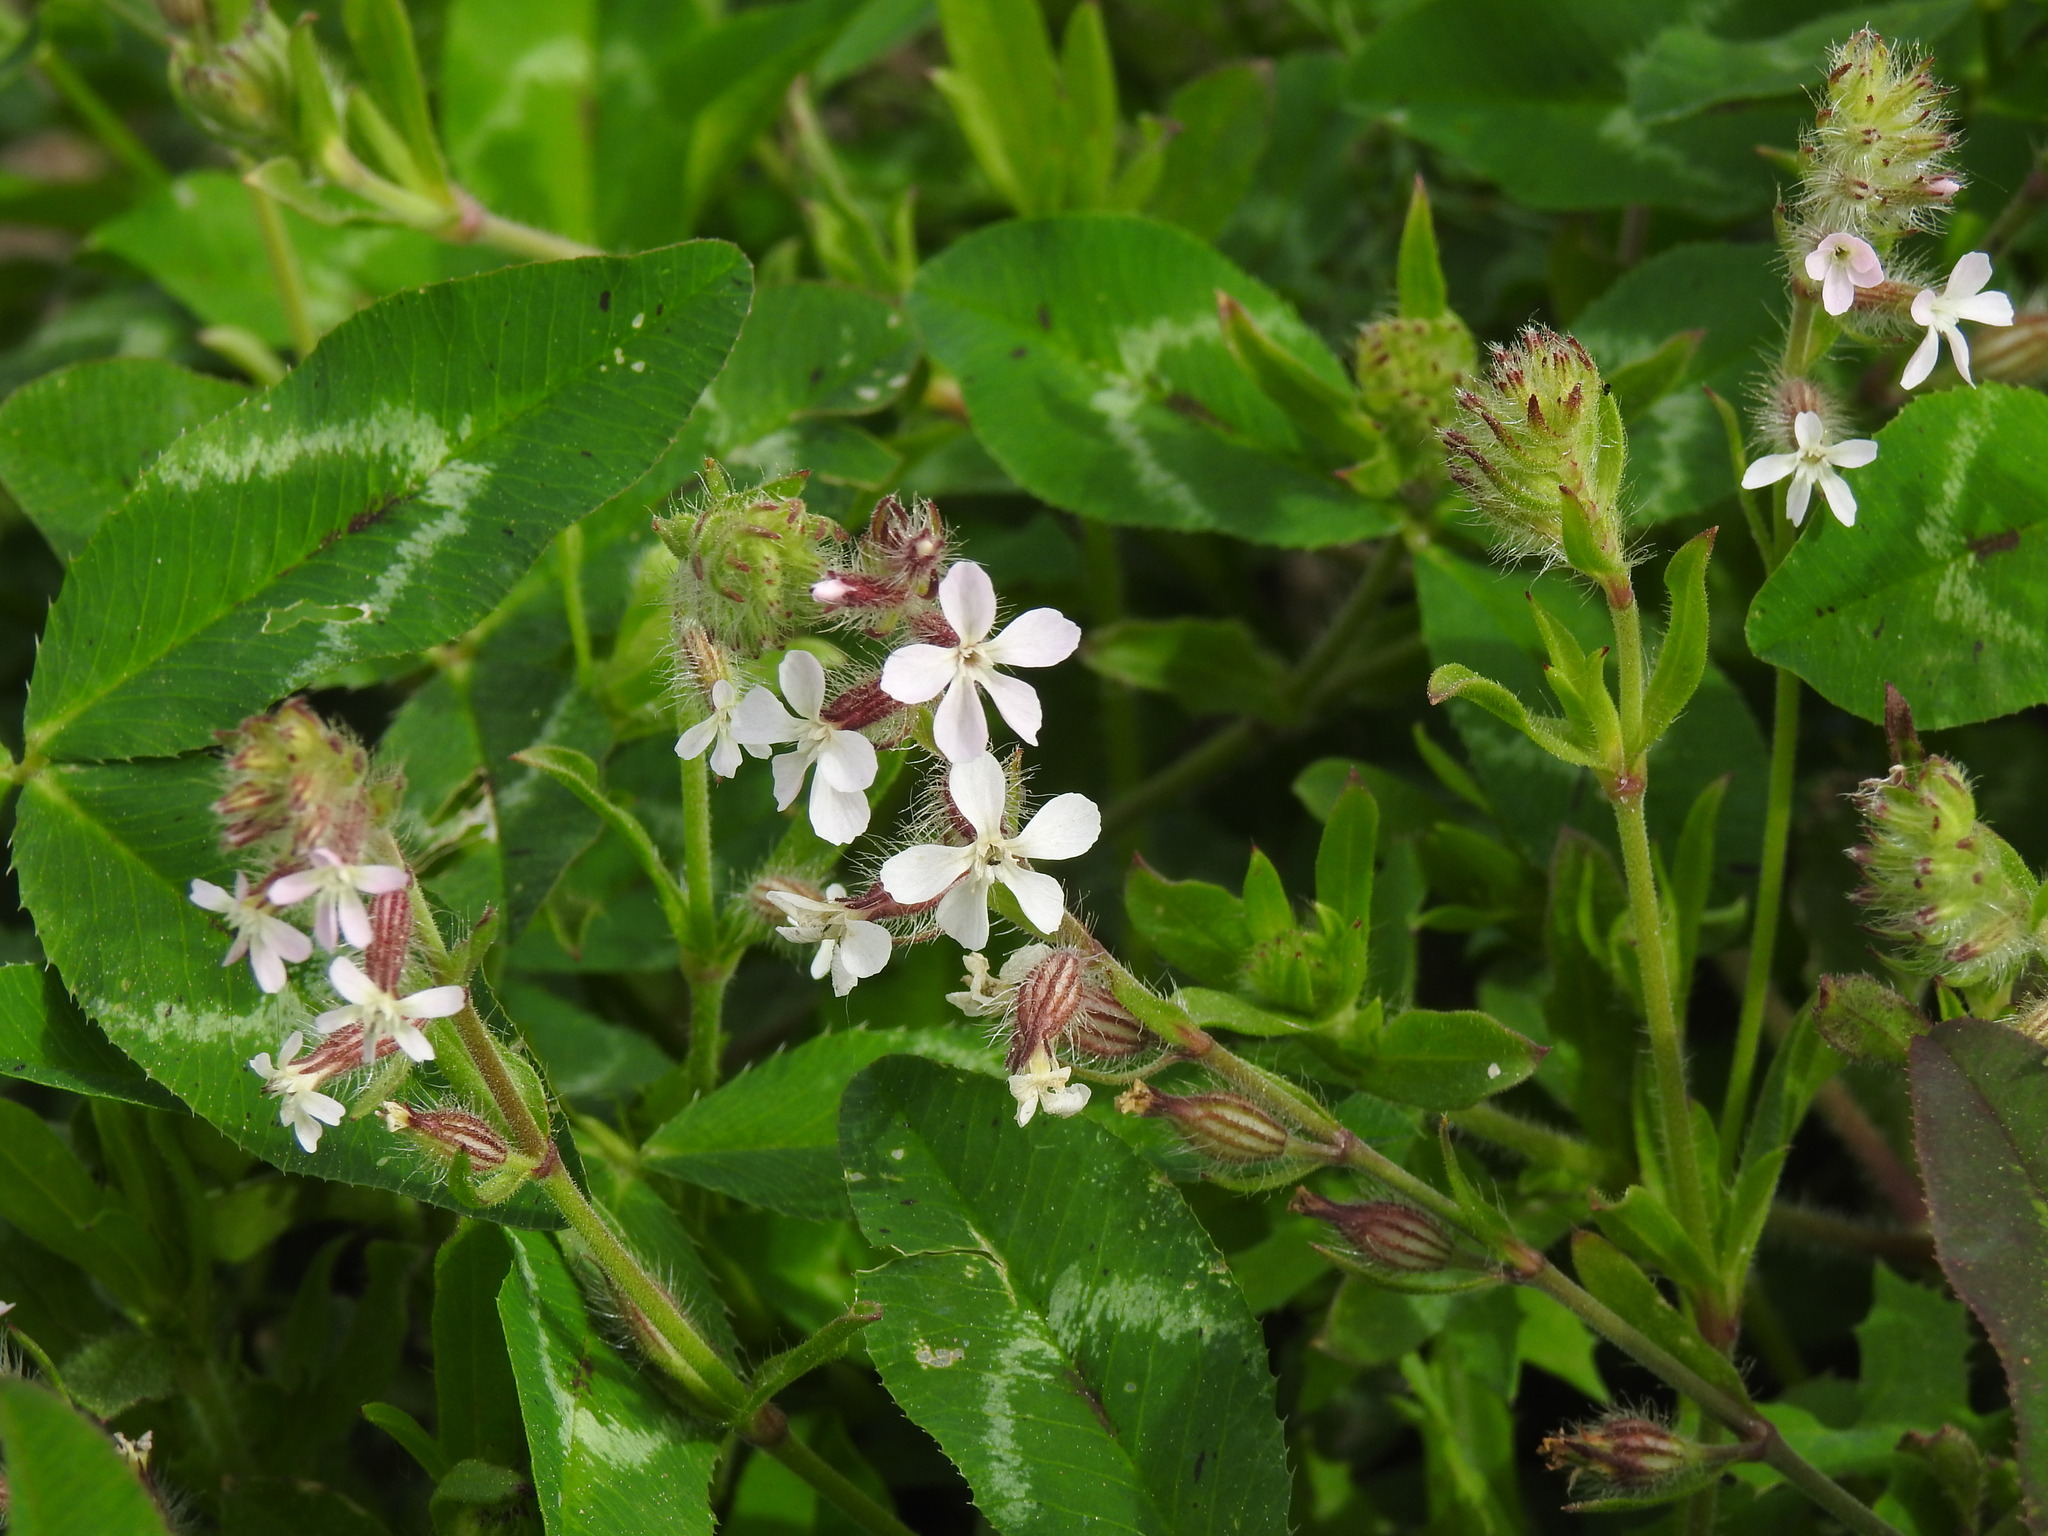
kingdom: Plantae
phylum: Tracheophyta
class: Magnoliopsida
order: Caryophyllales
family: Caryophyllaceae
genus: Silene
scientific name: Silene gallica
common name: Small-flowered catchfly
